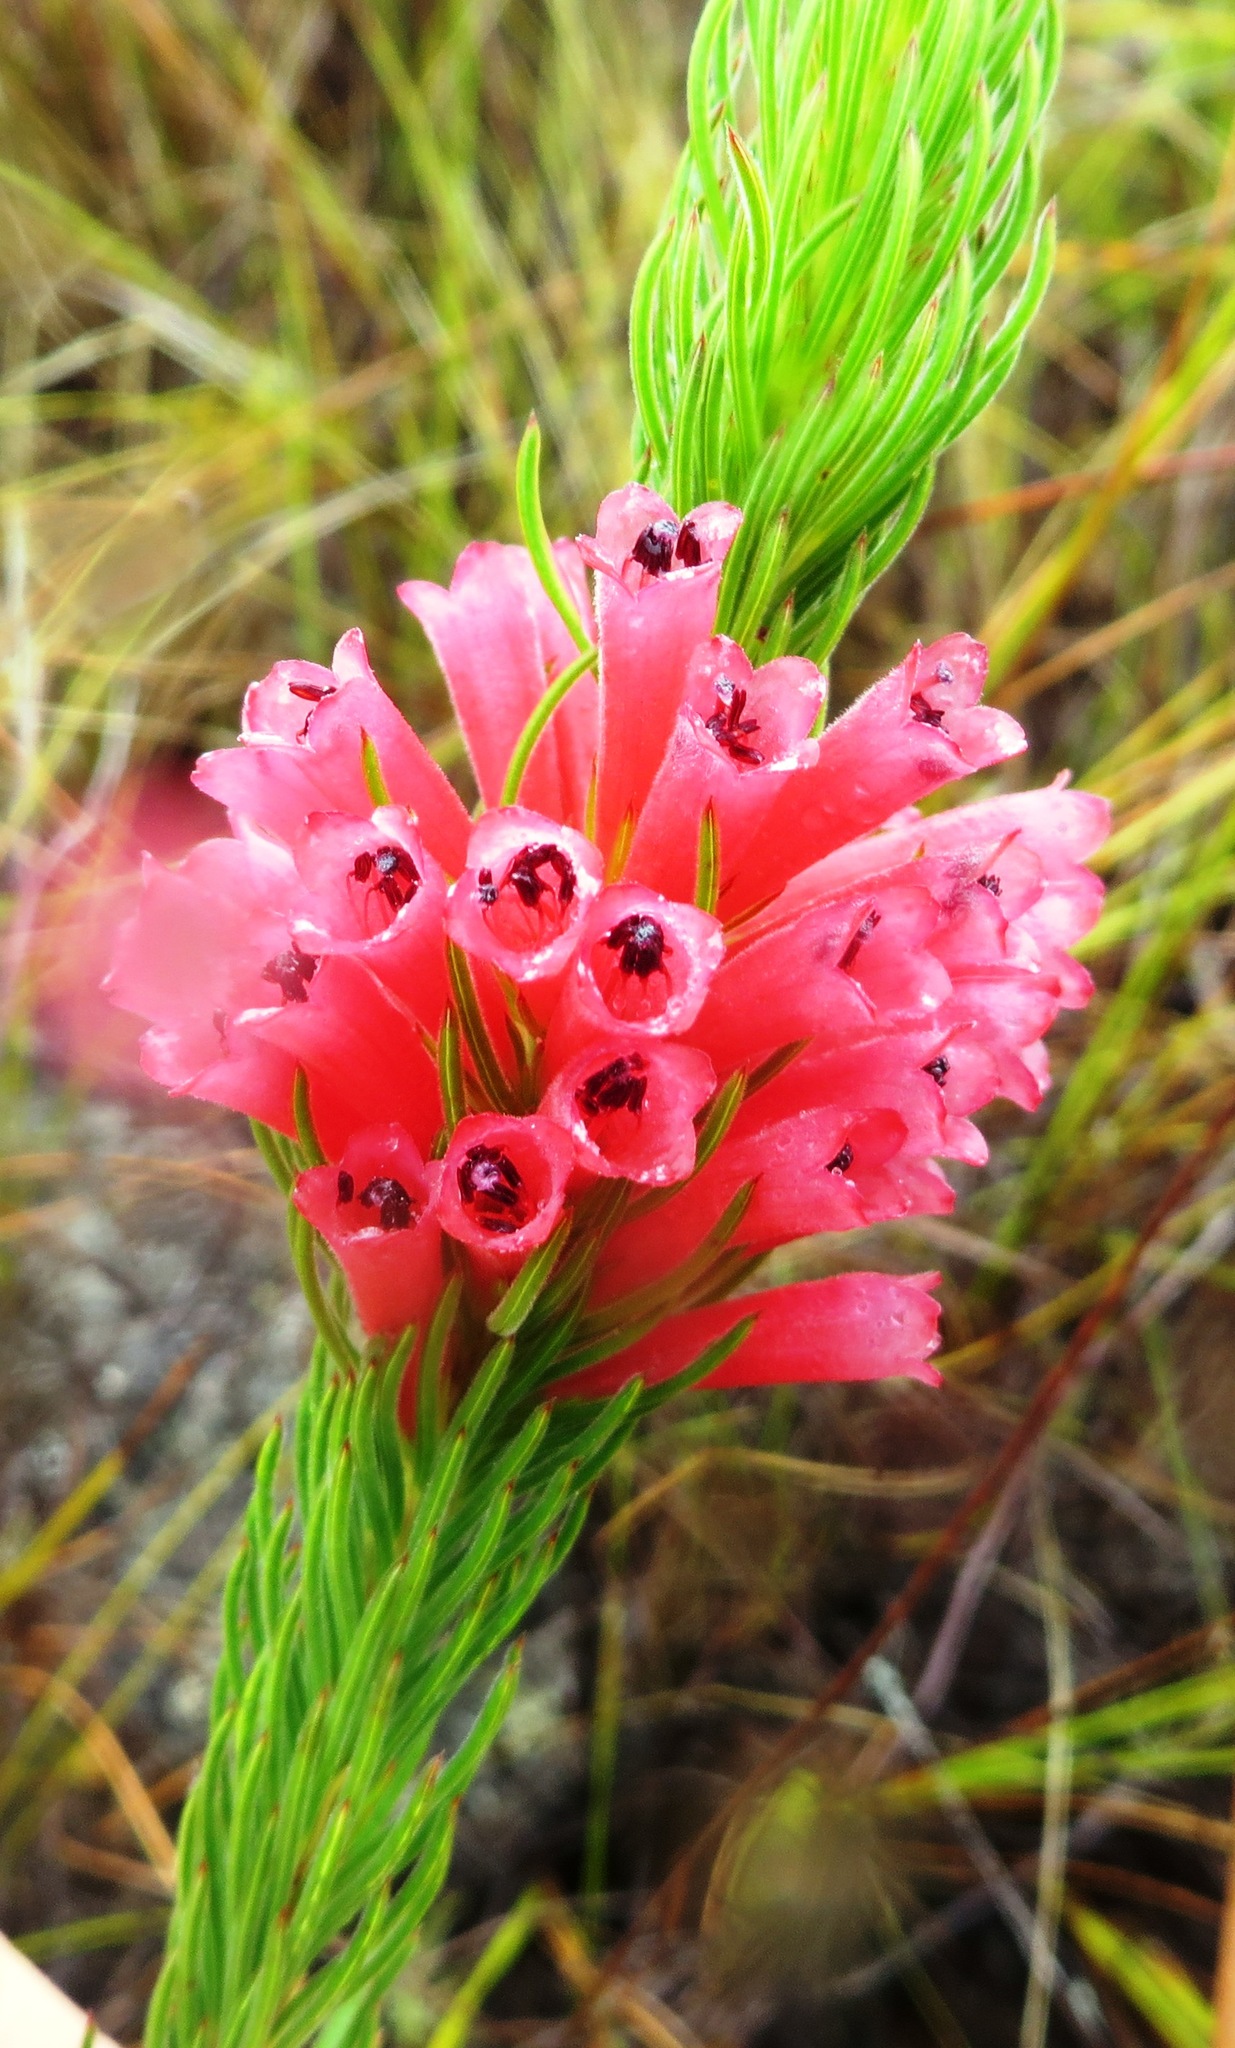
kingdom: Plantae
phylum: Tracheophyta
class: Magnoliopsida
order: Ericales
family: Ericaceae
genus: Erica
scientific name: Erica viscaria
